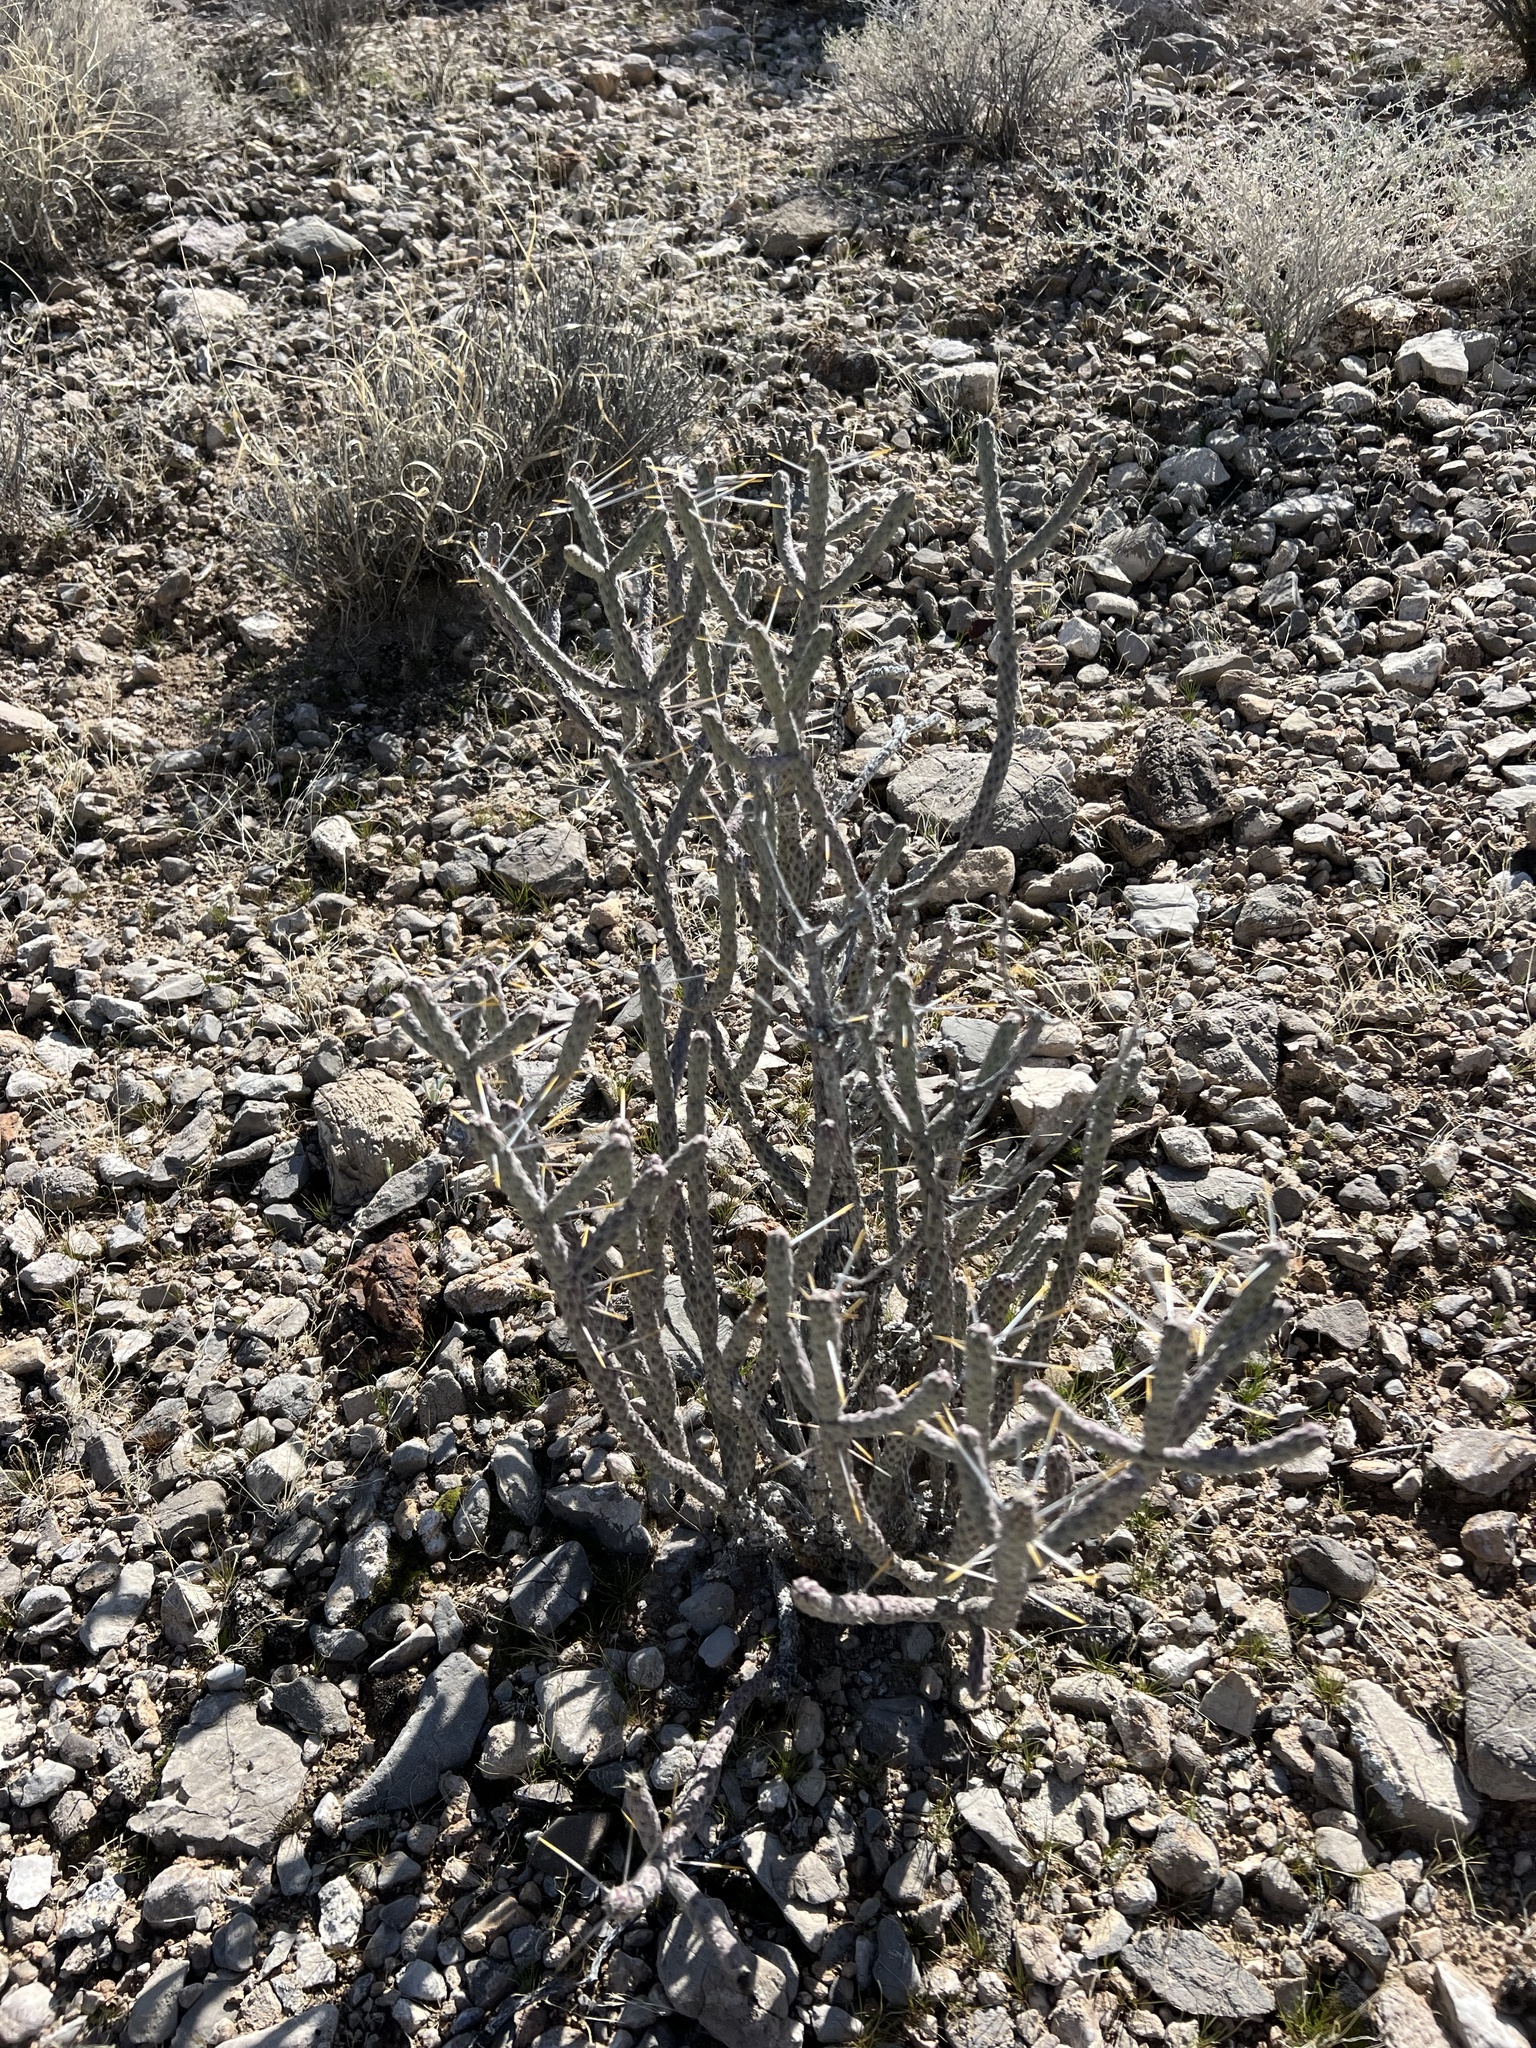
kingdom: Plantae
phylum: Tracheophyta
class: Magnoliopsida
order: Caryophyllales
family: Cactaceae
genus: Cylindropuntia
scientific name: Cylindropuntia ramosissima
